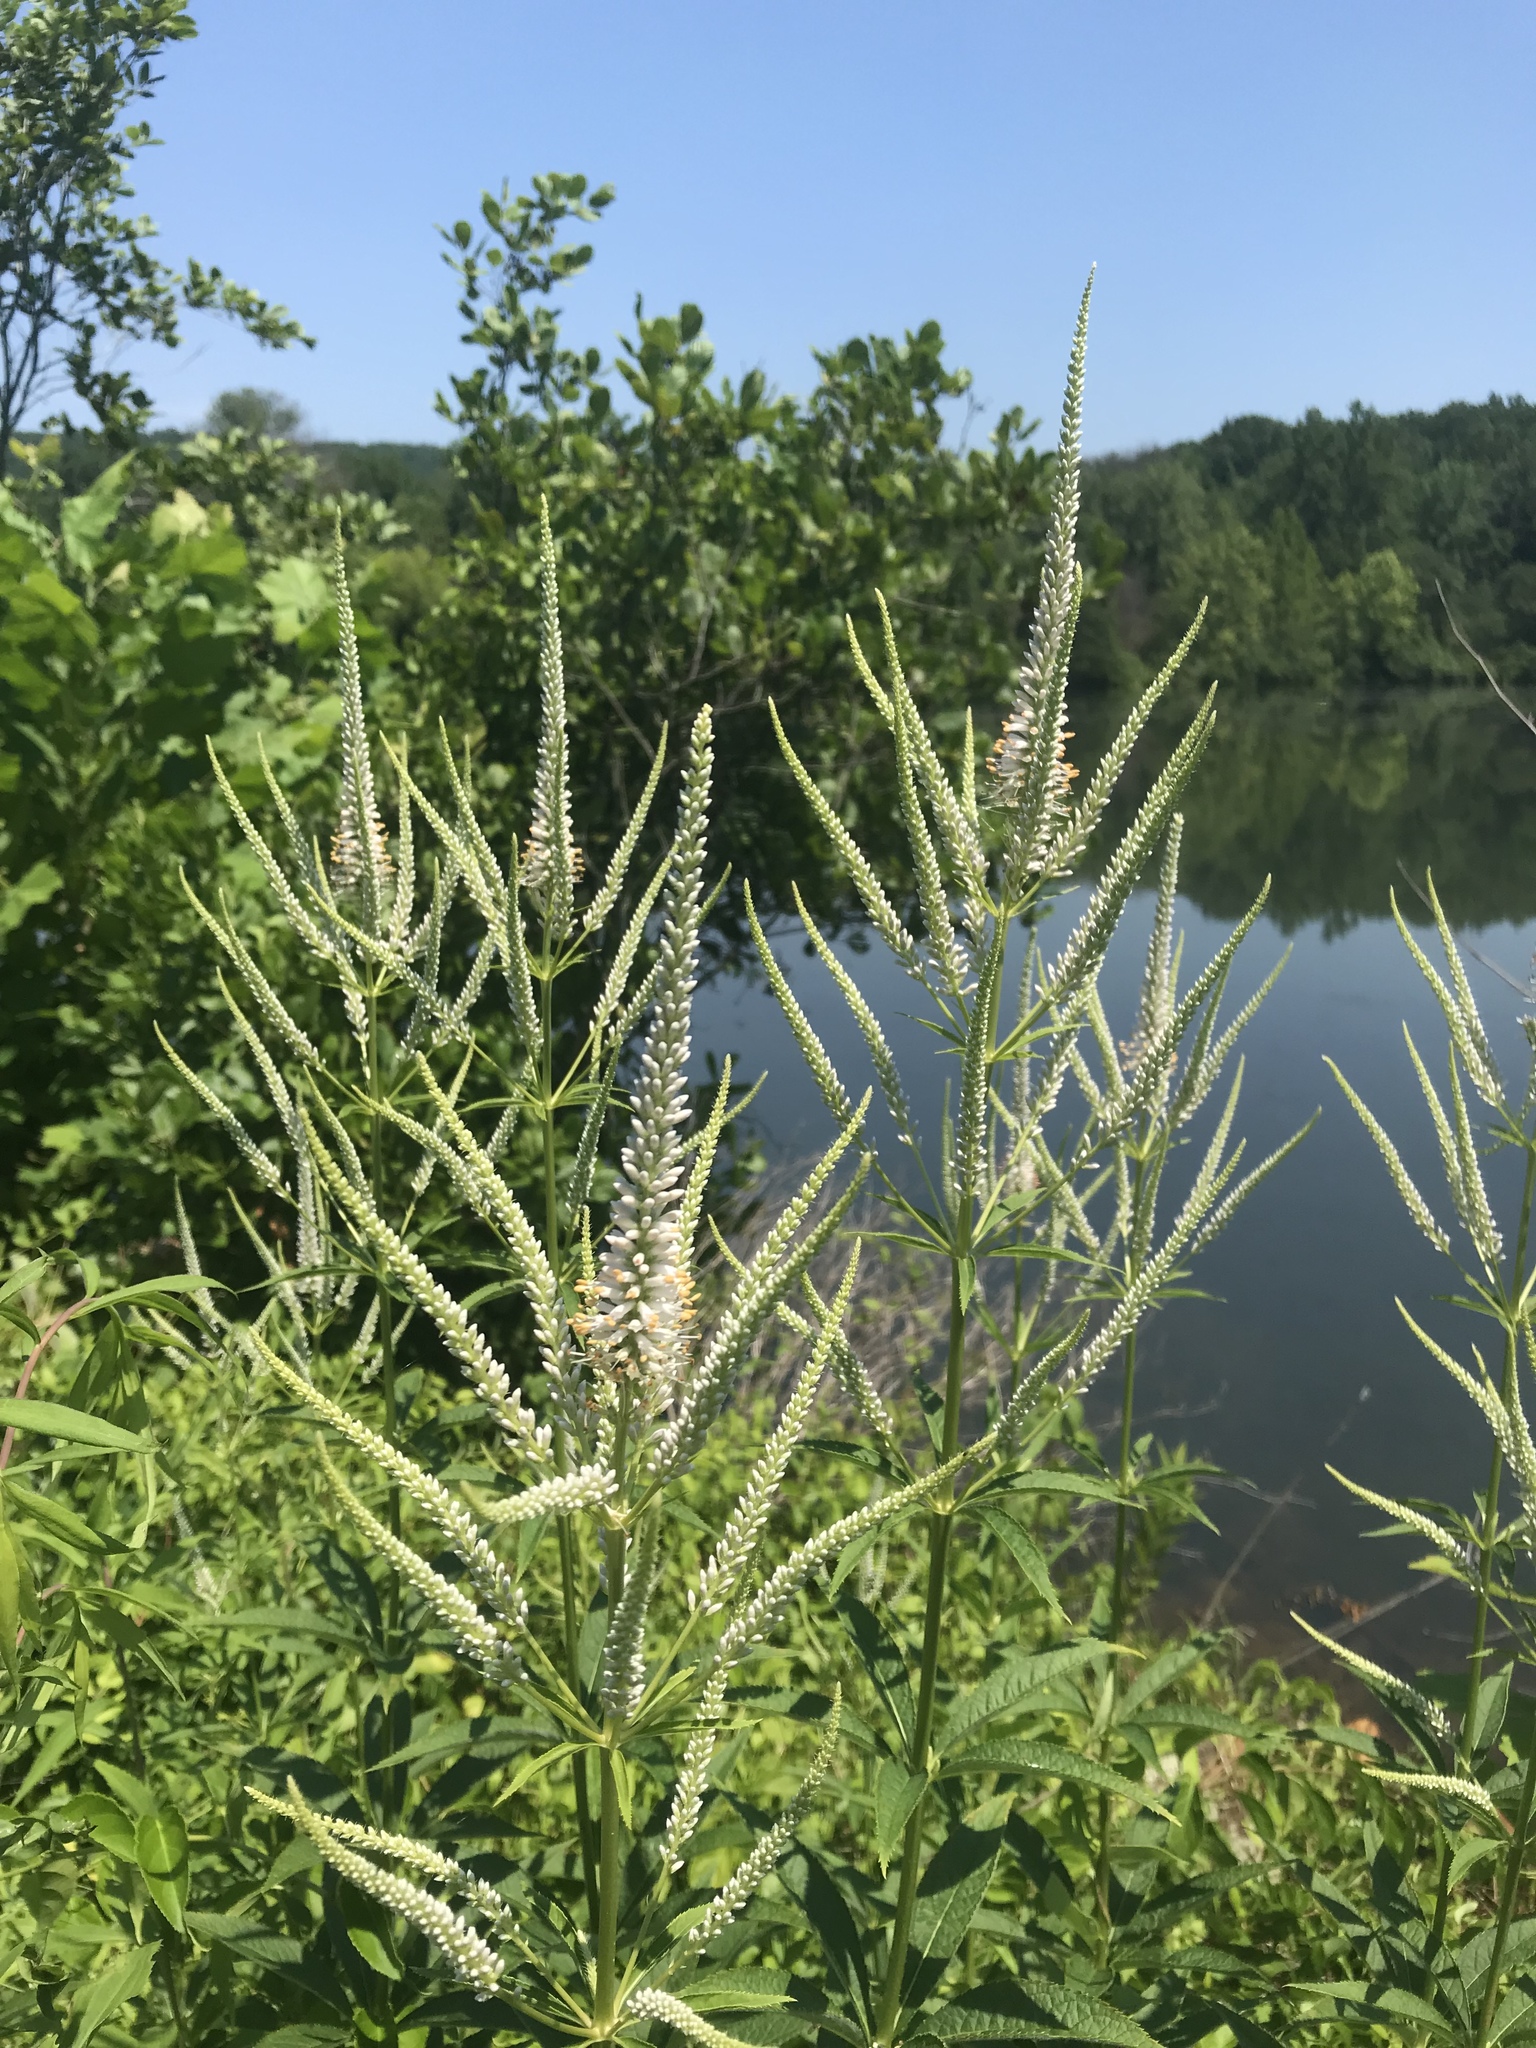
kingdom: Plantae
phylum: Tracheophyta
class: Magnoliopsida
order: Lamiales
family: Plantaginaceae
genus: Veronicastrum
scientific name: Veronicastrum virginicum
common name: Blackroot
